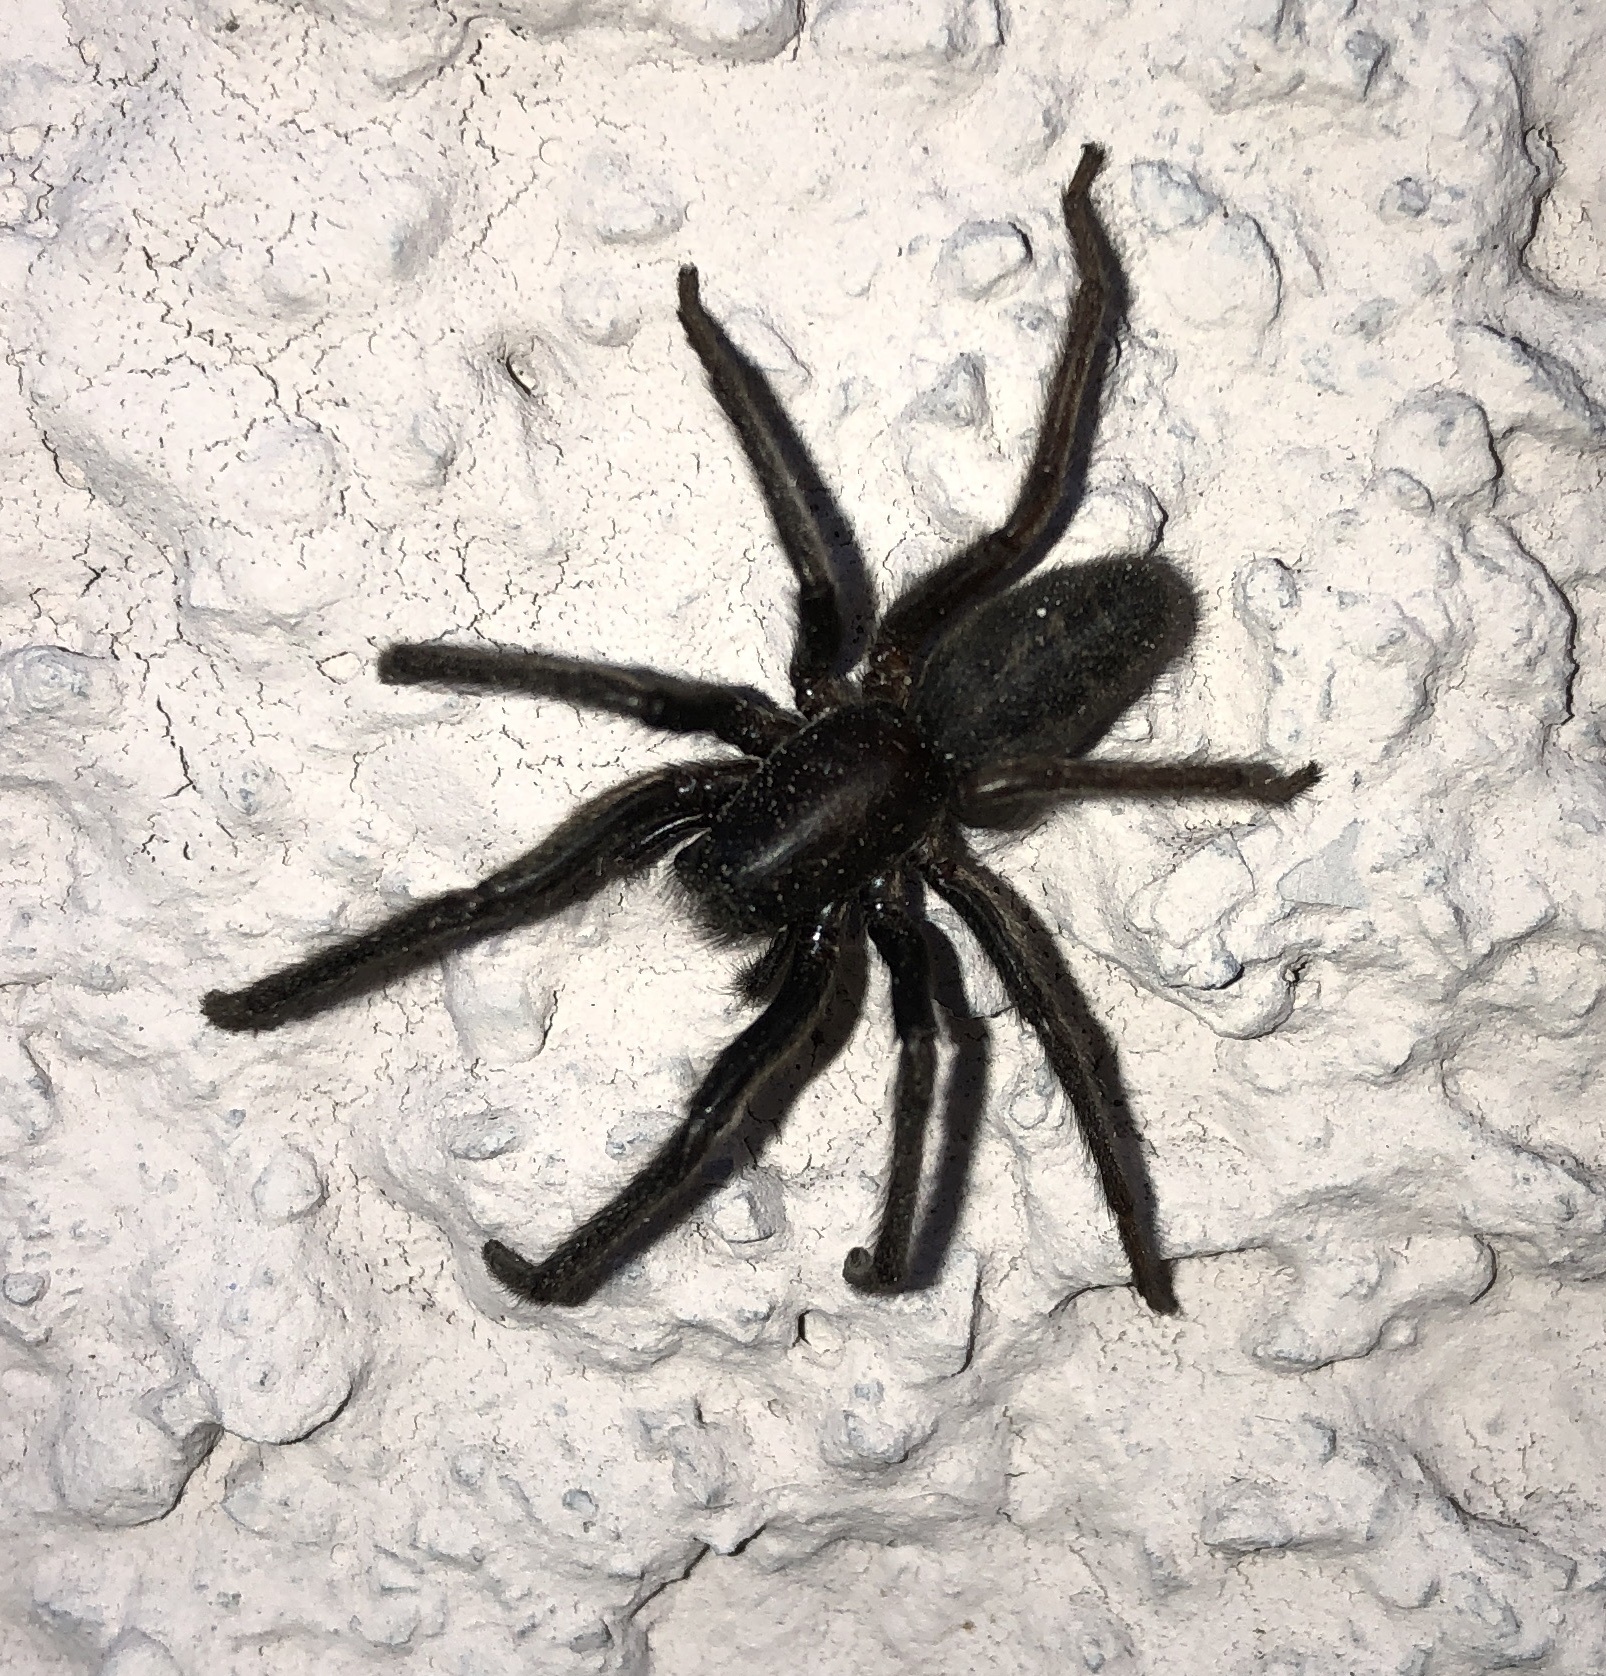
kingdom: Animalia
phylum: Arthropoda
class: Arachnida
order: Araneae
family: Segestriidae
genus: Segestria
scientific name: Segestria florentina
